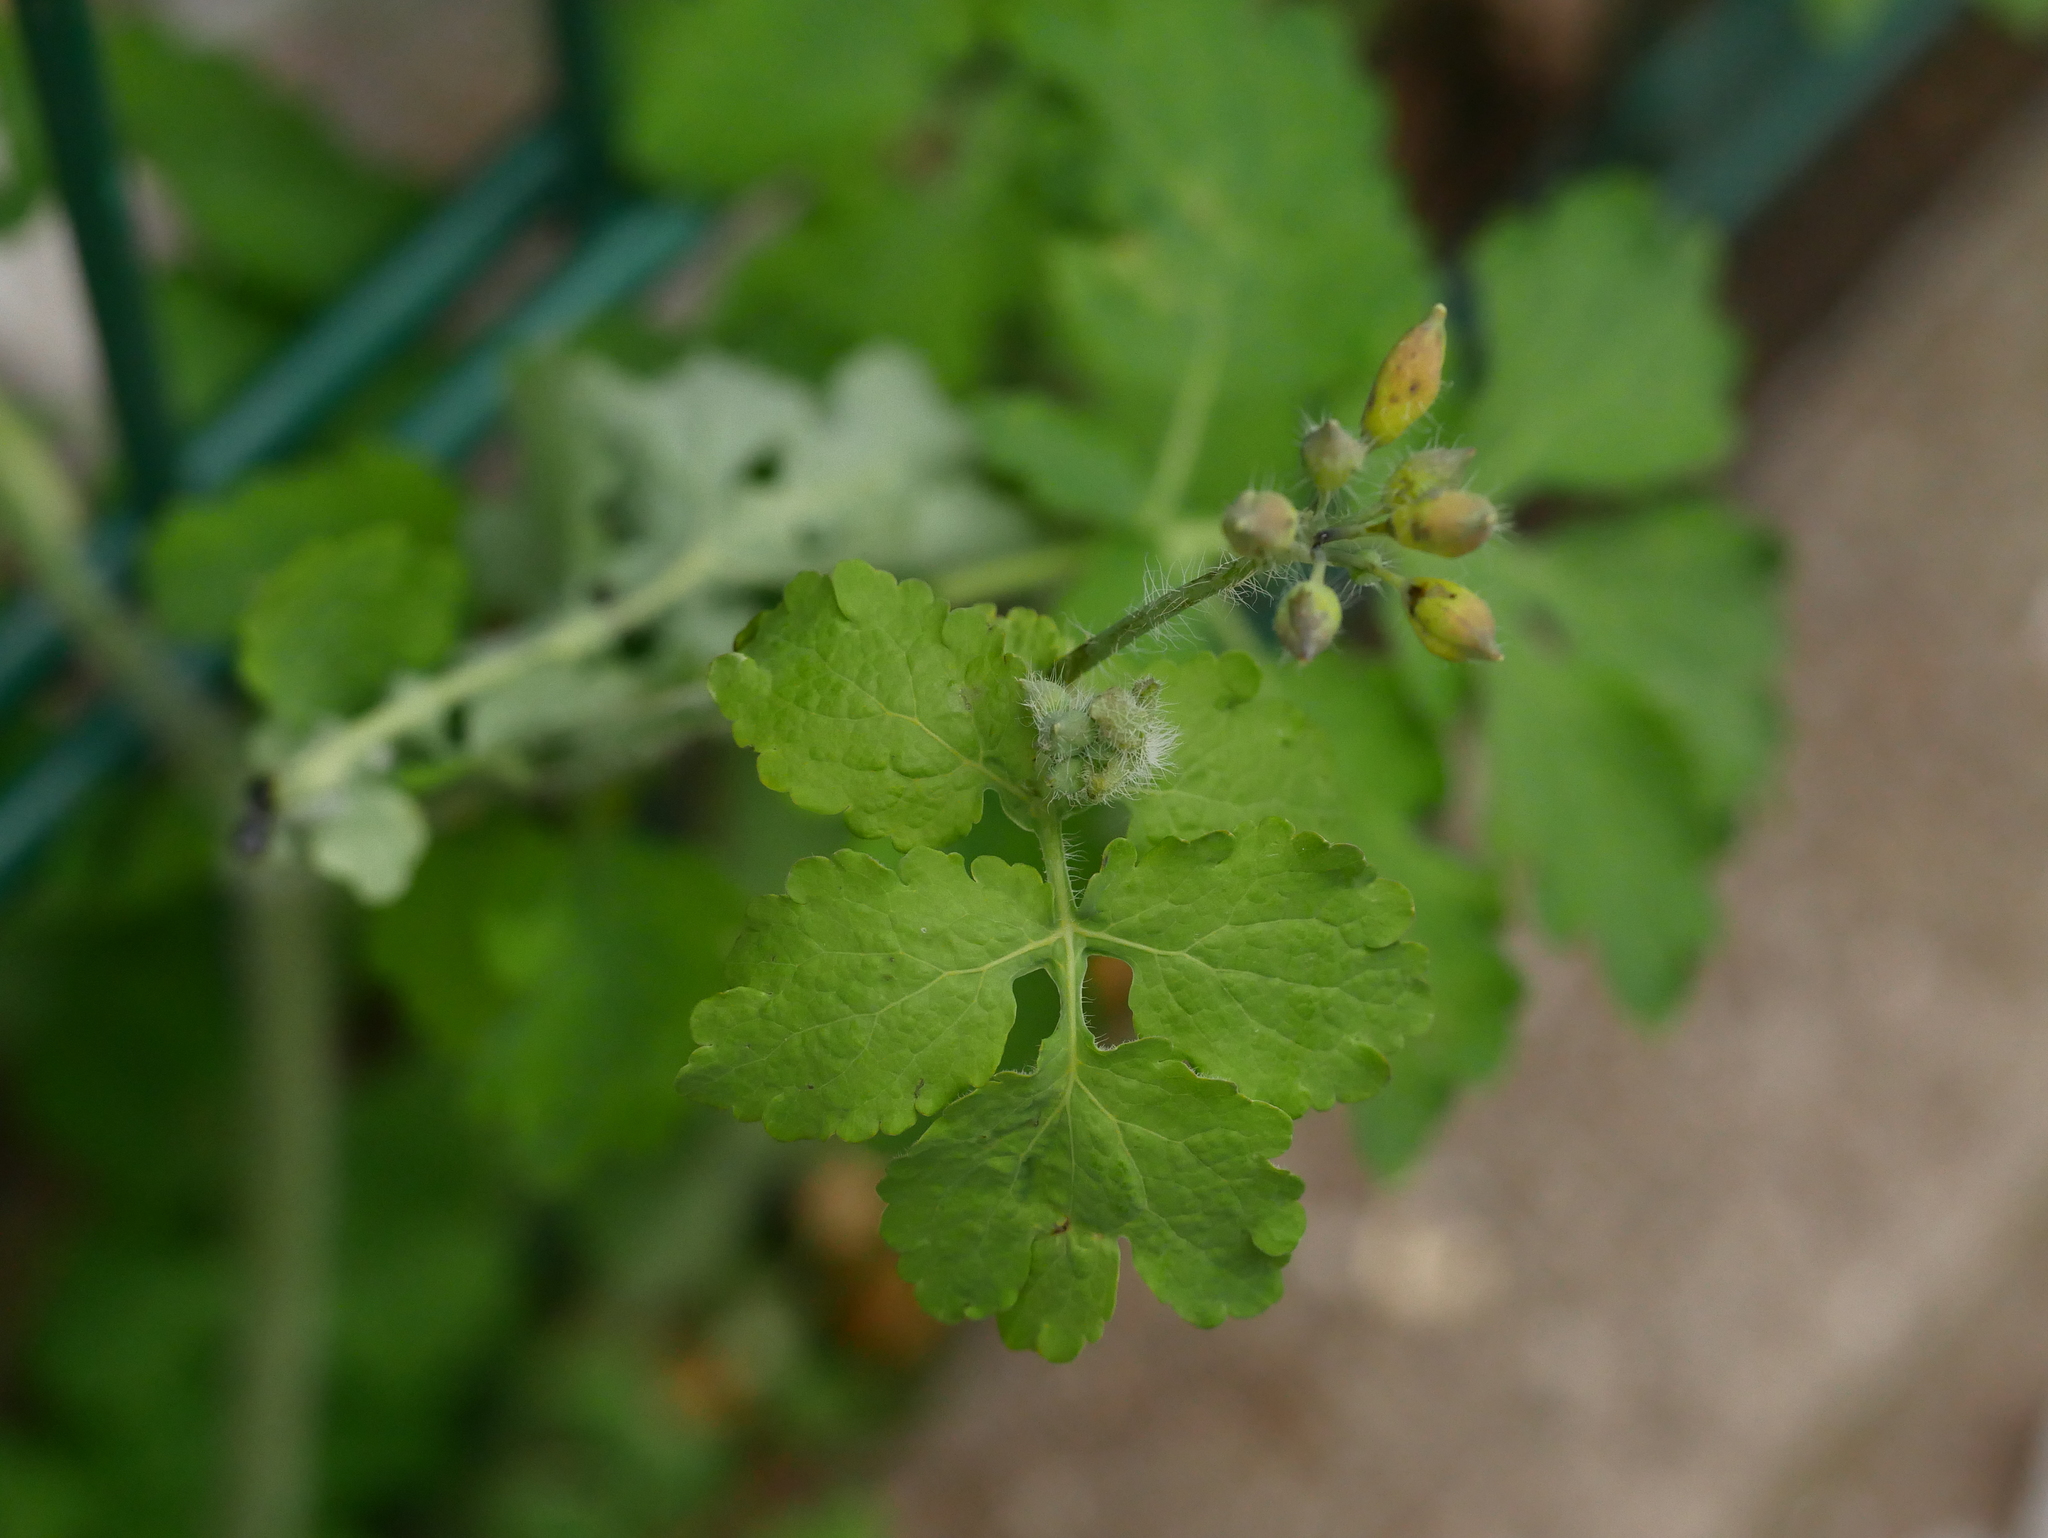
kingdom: Plantae
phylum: Tracheophyta
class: Magnoliopsida
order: Ranunculales
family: Papaveraceae
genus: Chelidonium
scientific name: Chelidonium majus
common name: Greater celandine
